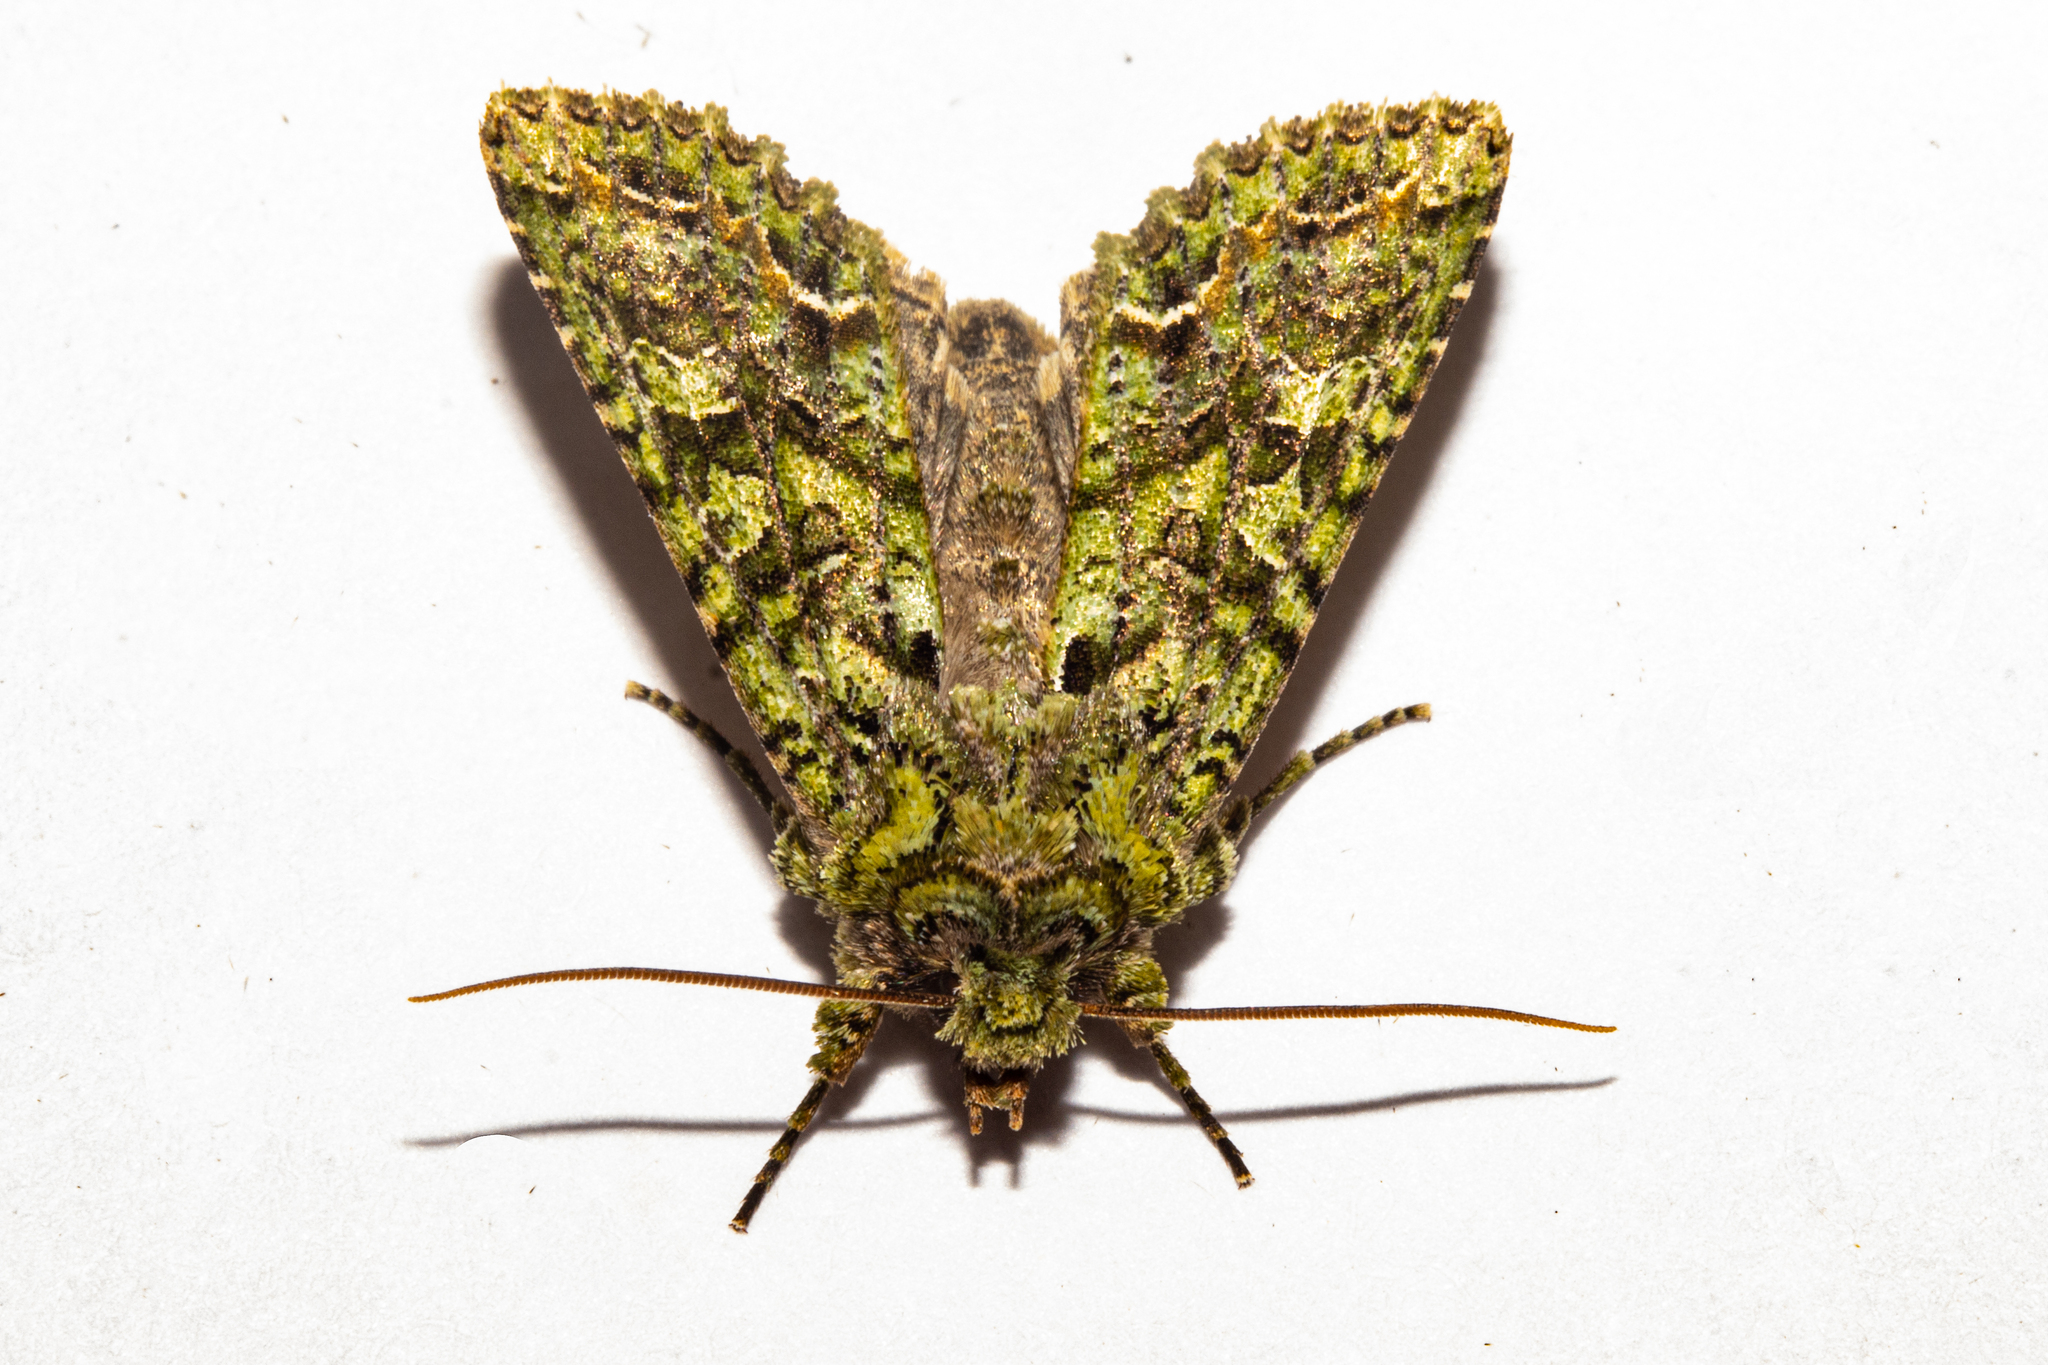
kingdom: Animalia
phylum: Arthropoda
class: Insecta
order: Lepidoptera
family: Noctuidae
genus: Meterana
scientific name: Meterana
